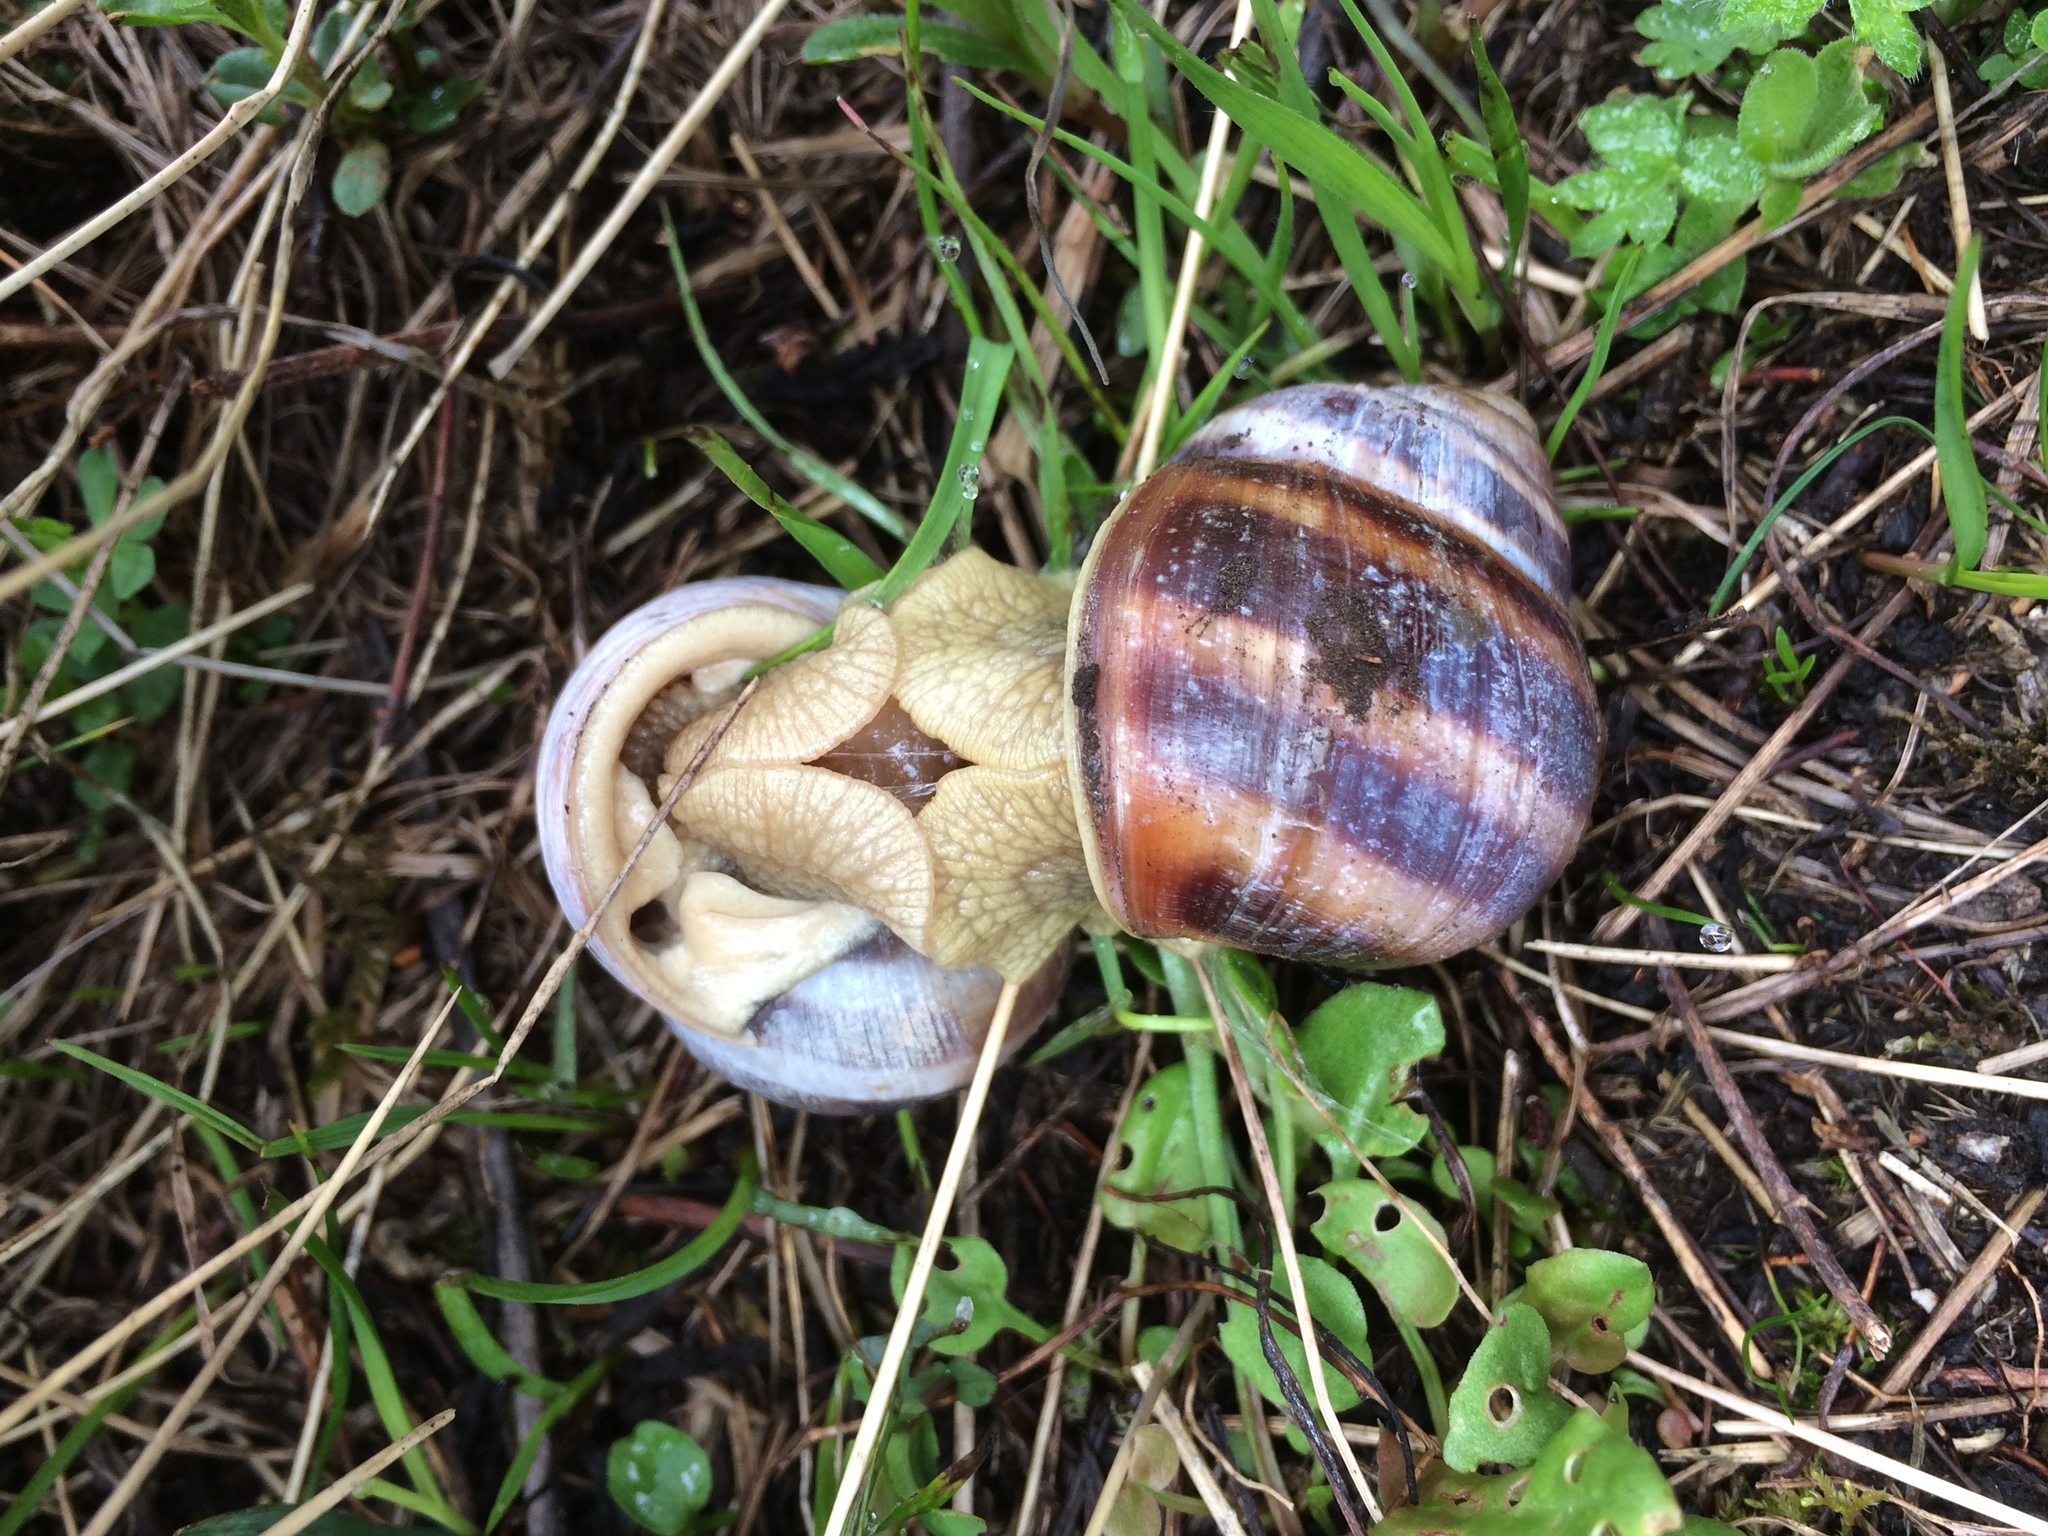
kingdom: Animalia
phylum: Mollusca
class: Gastropoda
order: Stylommatophora
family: Helicidae
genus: Helix
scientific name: Helix dormitoris
